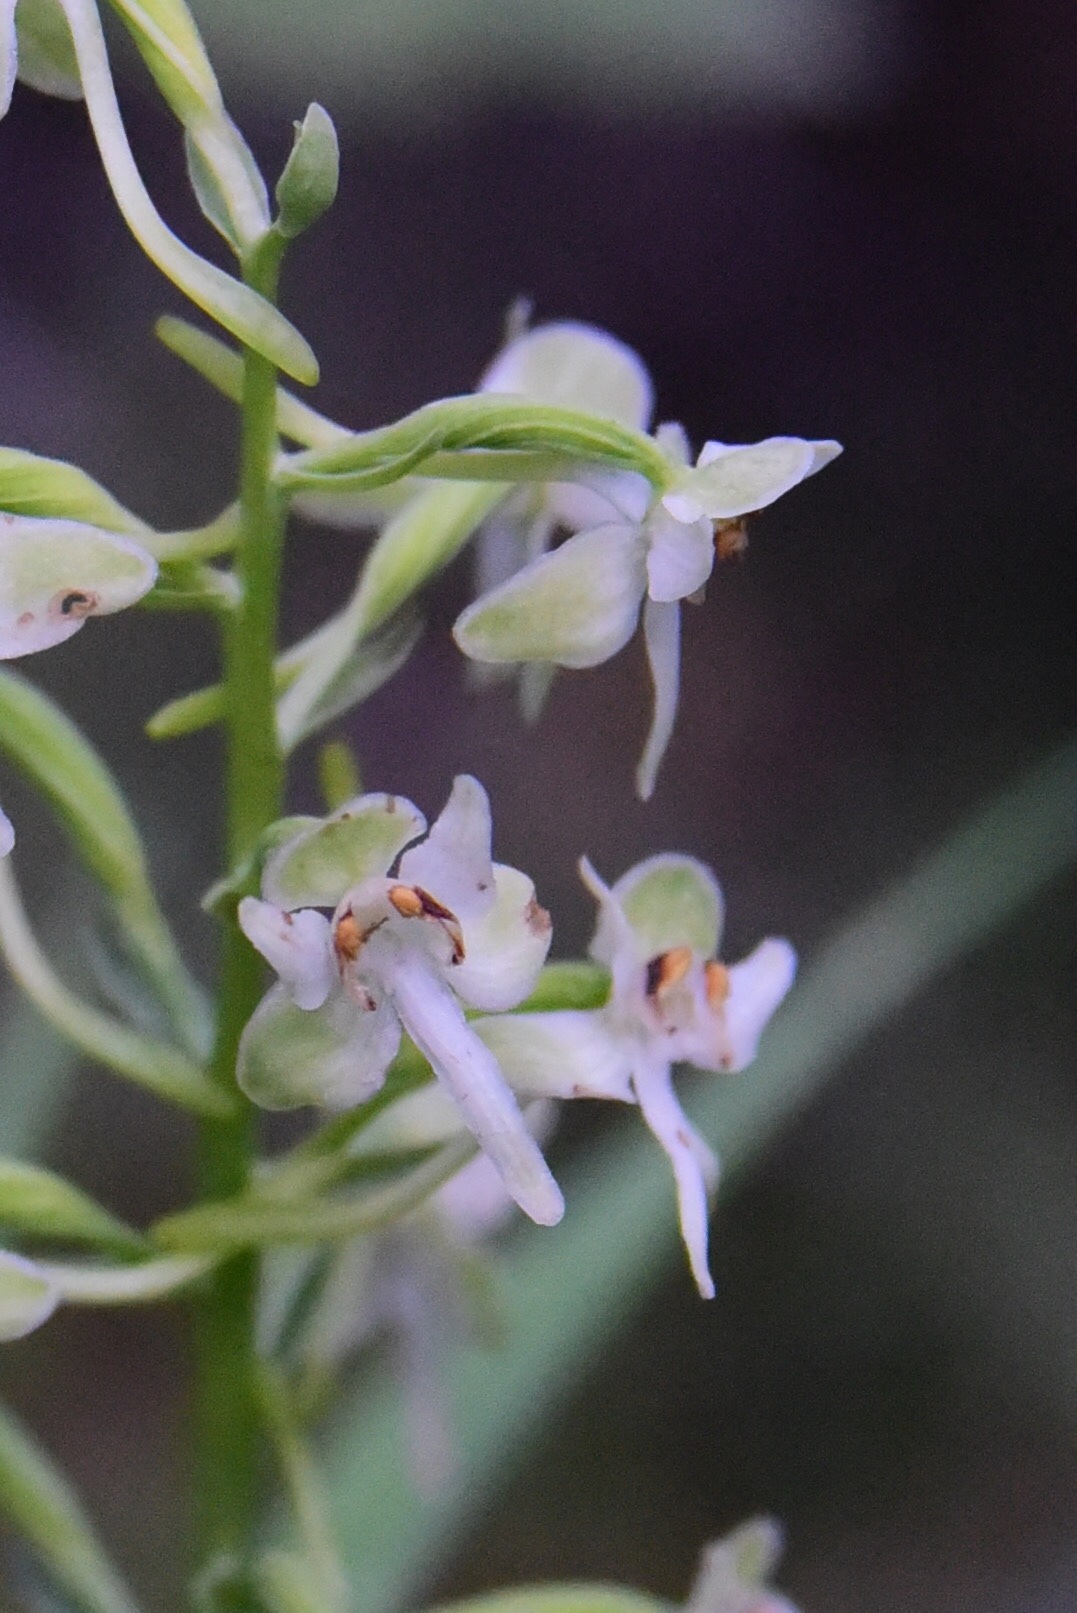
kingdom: Plantae
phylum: Tracheophyta
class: Liliopsida
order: Asparagales
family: Orchidaceae
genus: Platanthera
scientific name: Platanthera orbiculata
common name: Large round-leaved orchid
